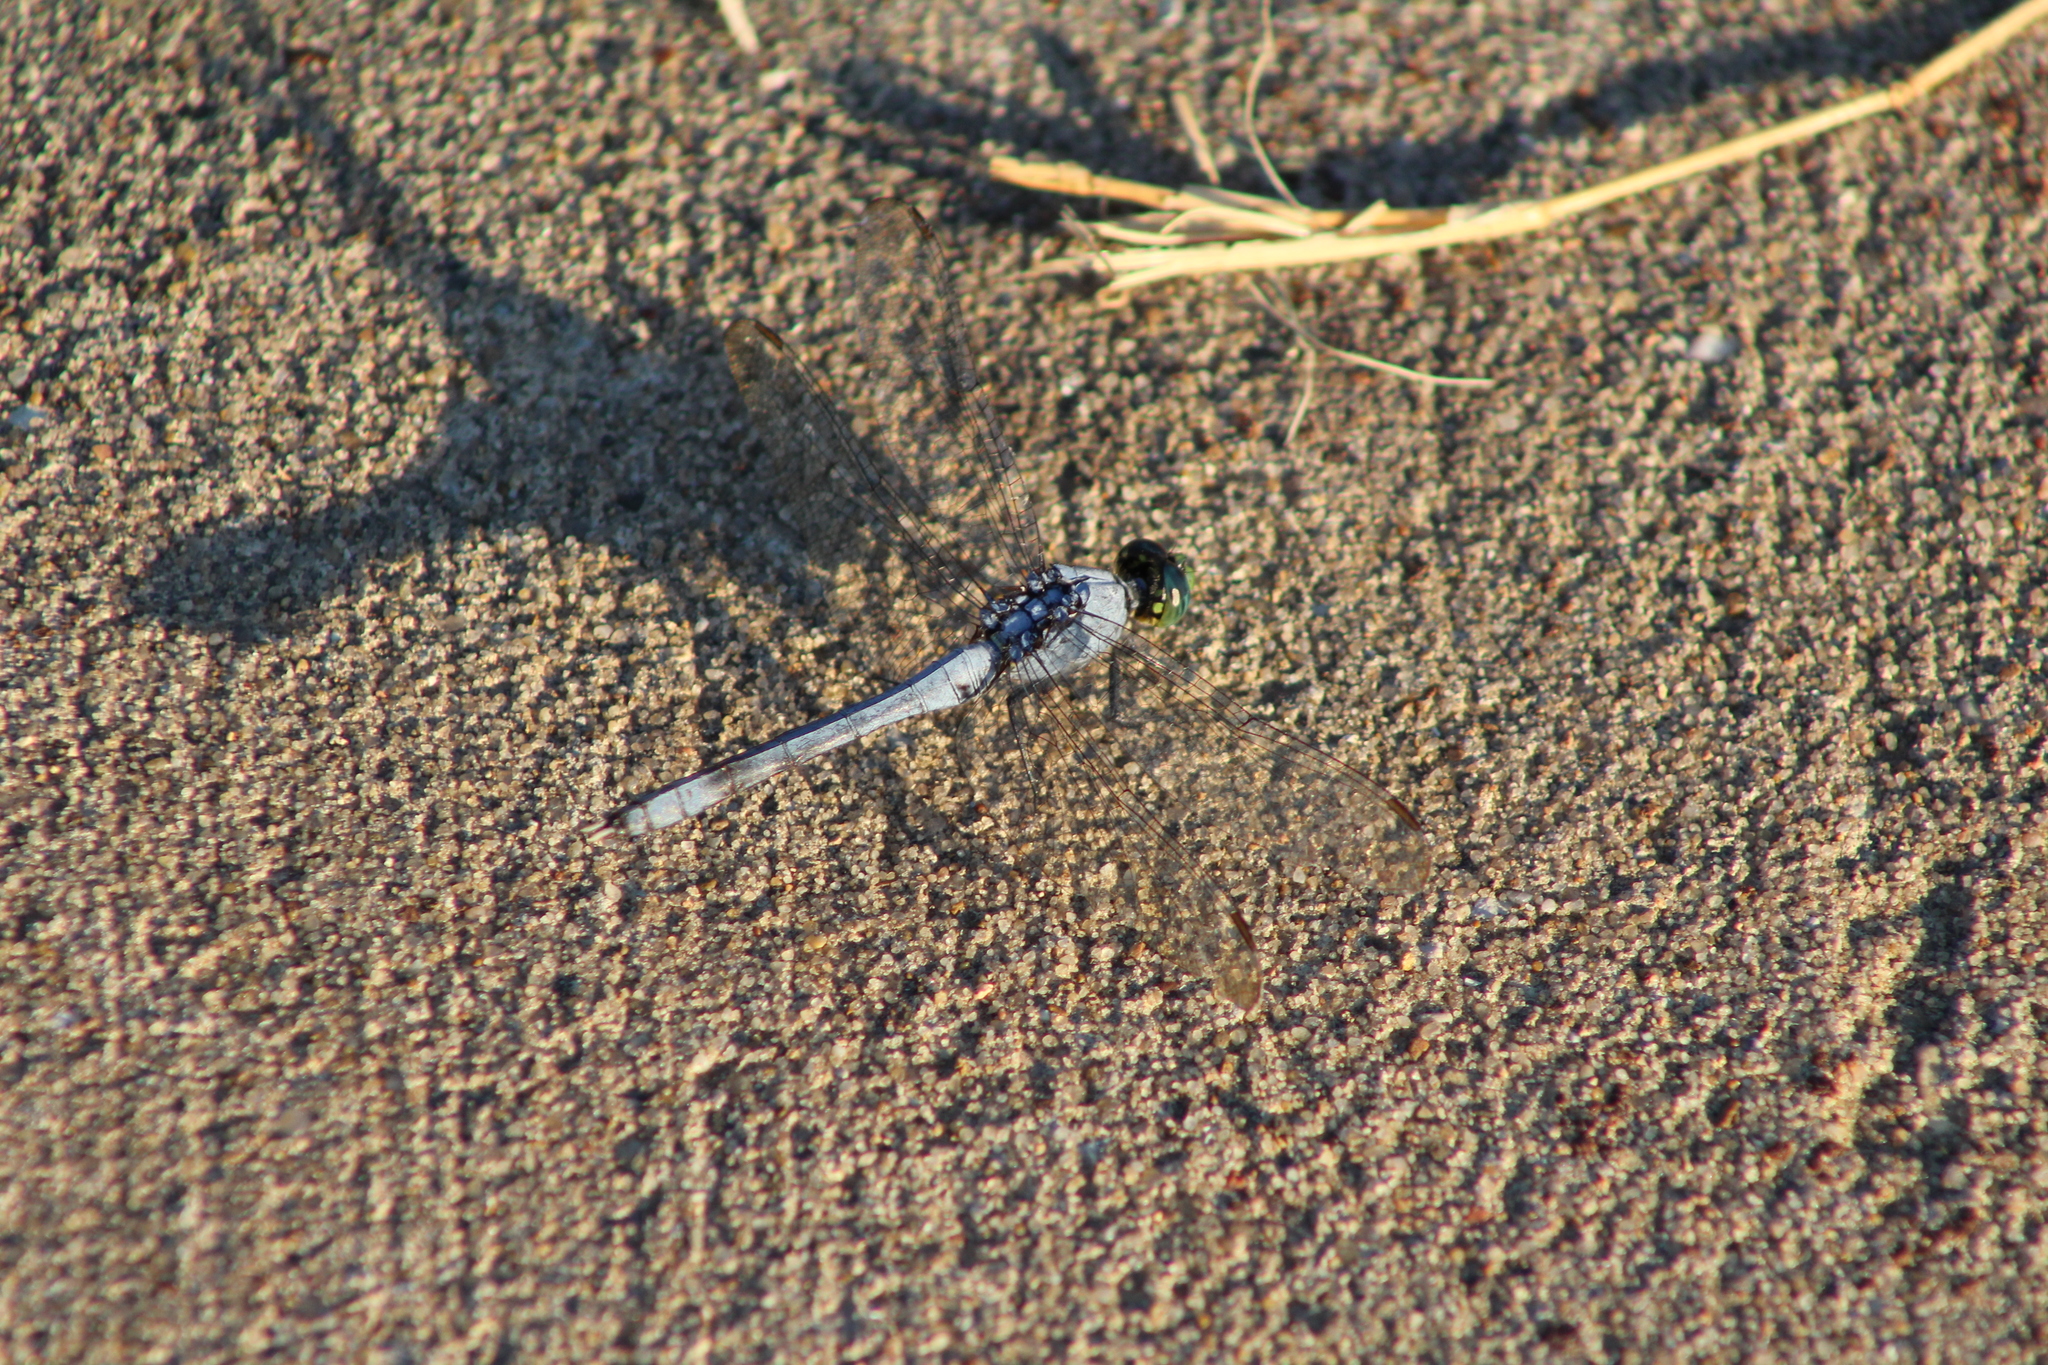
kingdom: Animalia
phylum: Arthropoda
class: Insecta
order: Odonata
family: Libellulidae
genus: Erythemis
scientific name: Erythemis simplicicollis
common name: Eastern pondhawk
